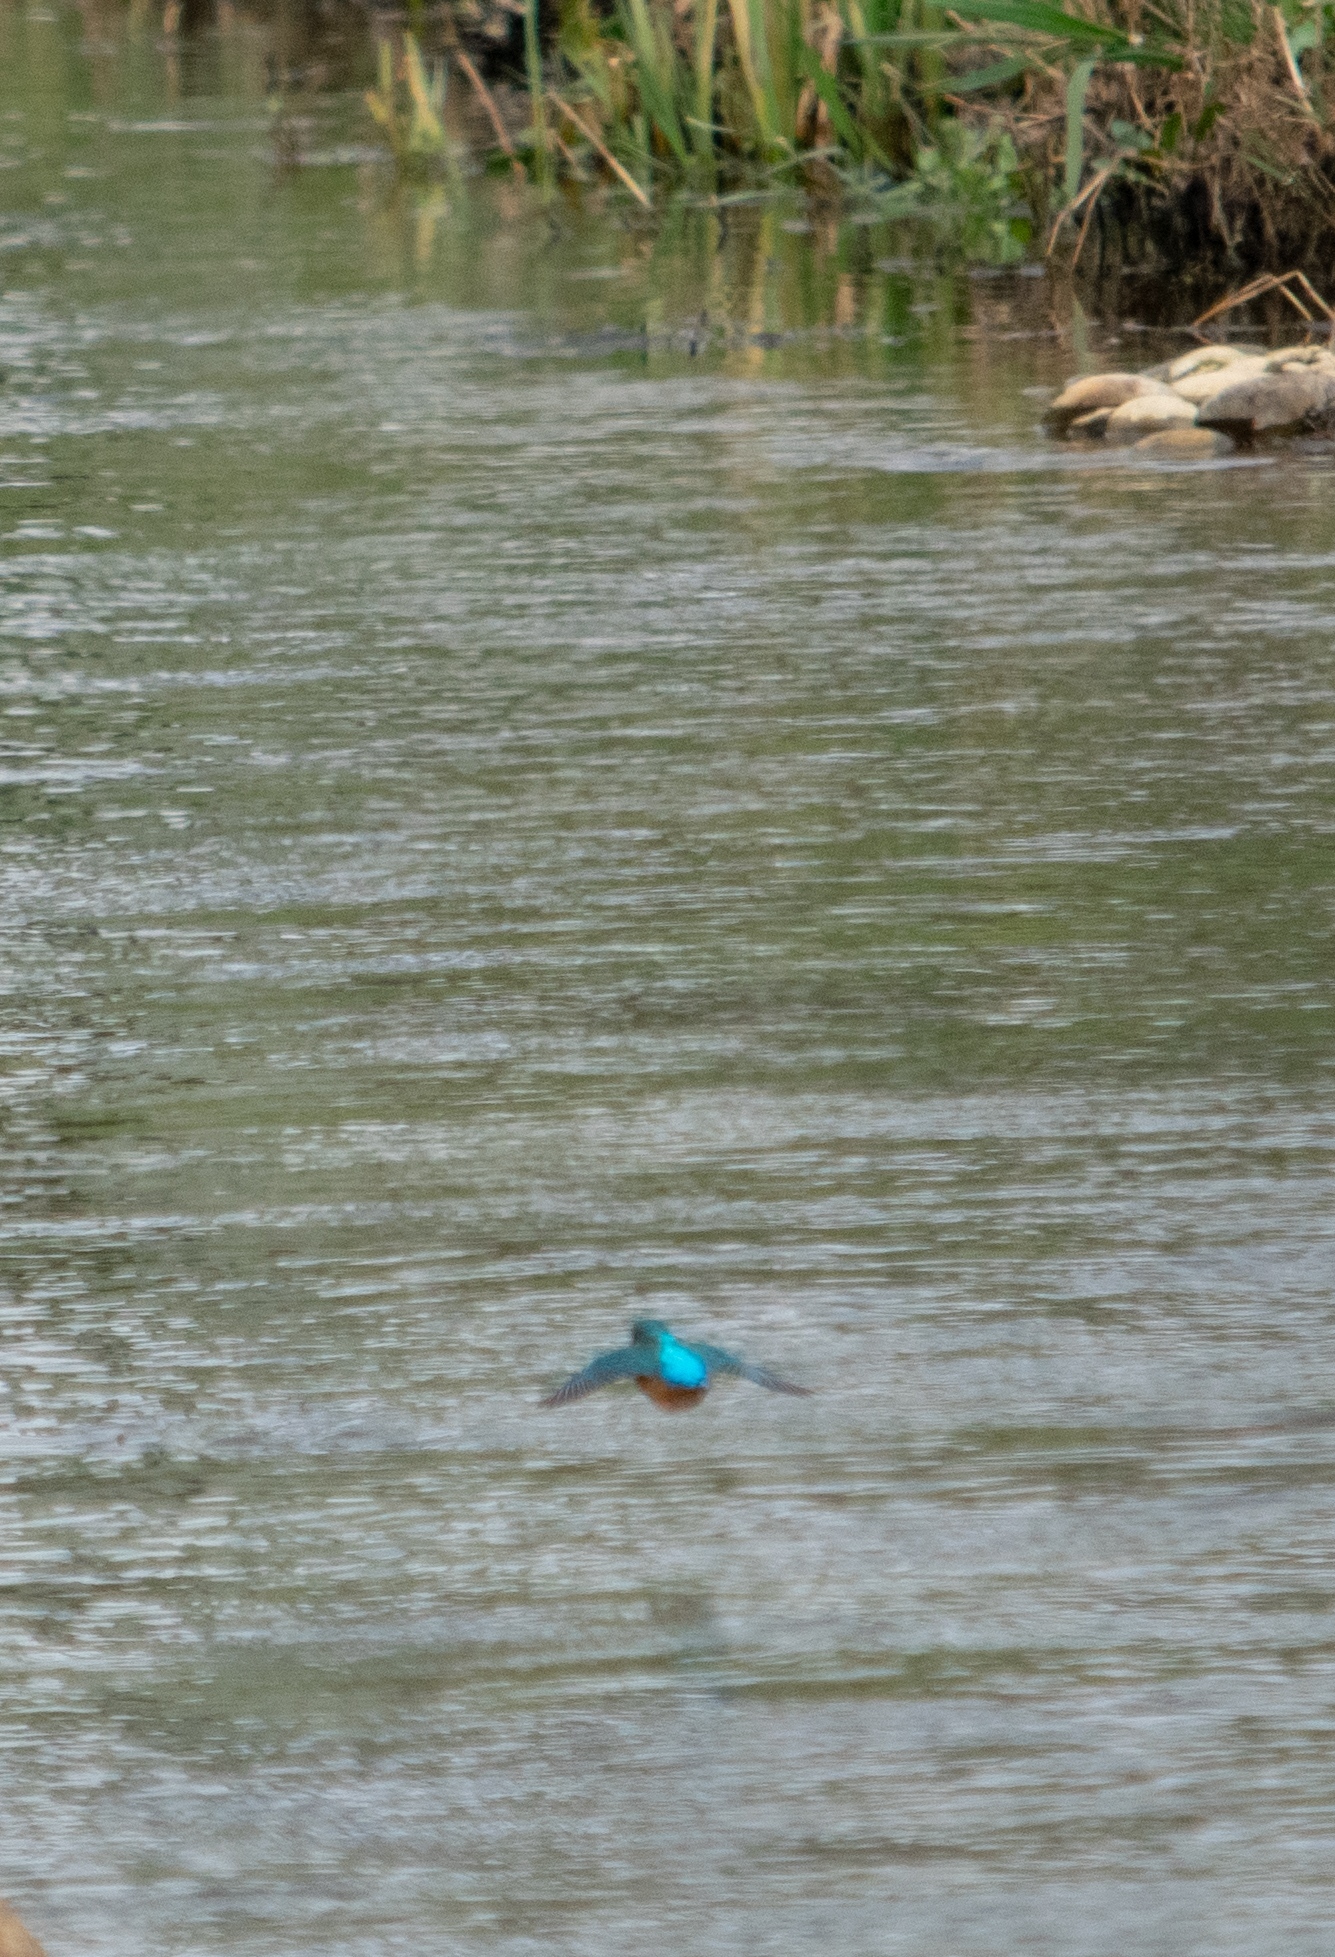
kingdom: Animalia
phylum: Chordata
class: Aves
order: Coraciiformes
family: Alcedinidae
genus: Alcedo
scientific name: Alcedo atthis
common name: Common kingfisher
